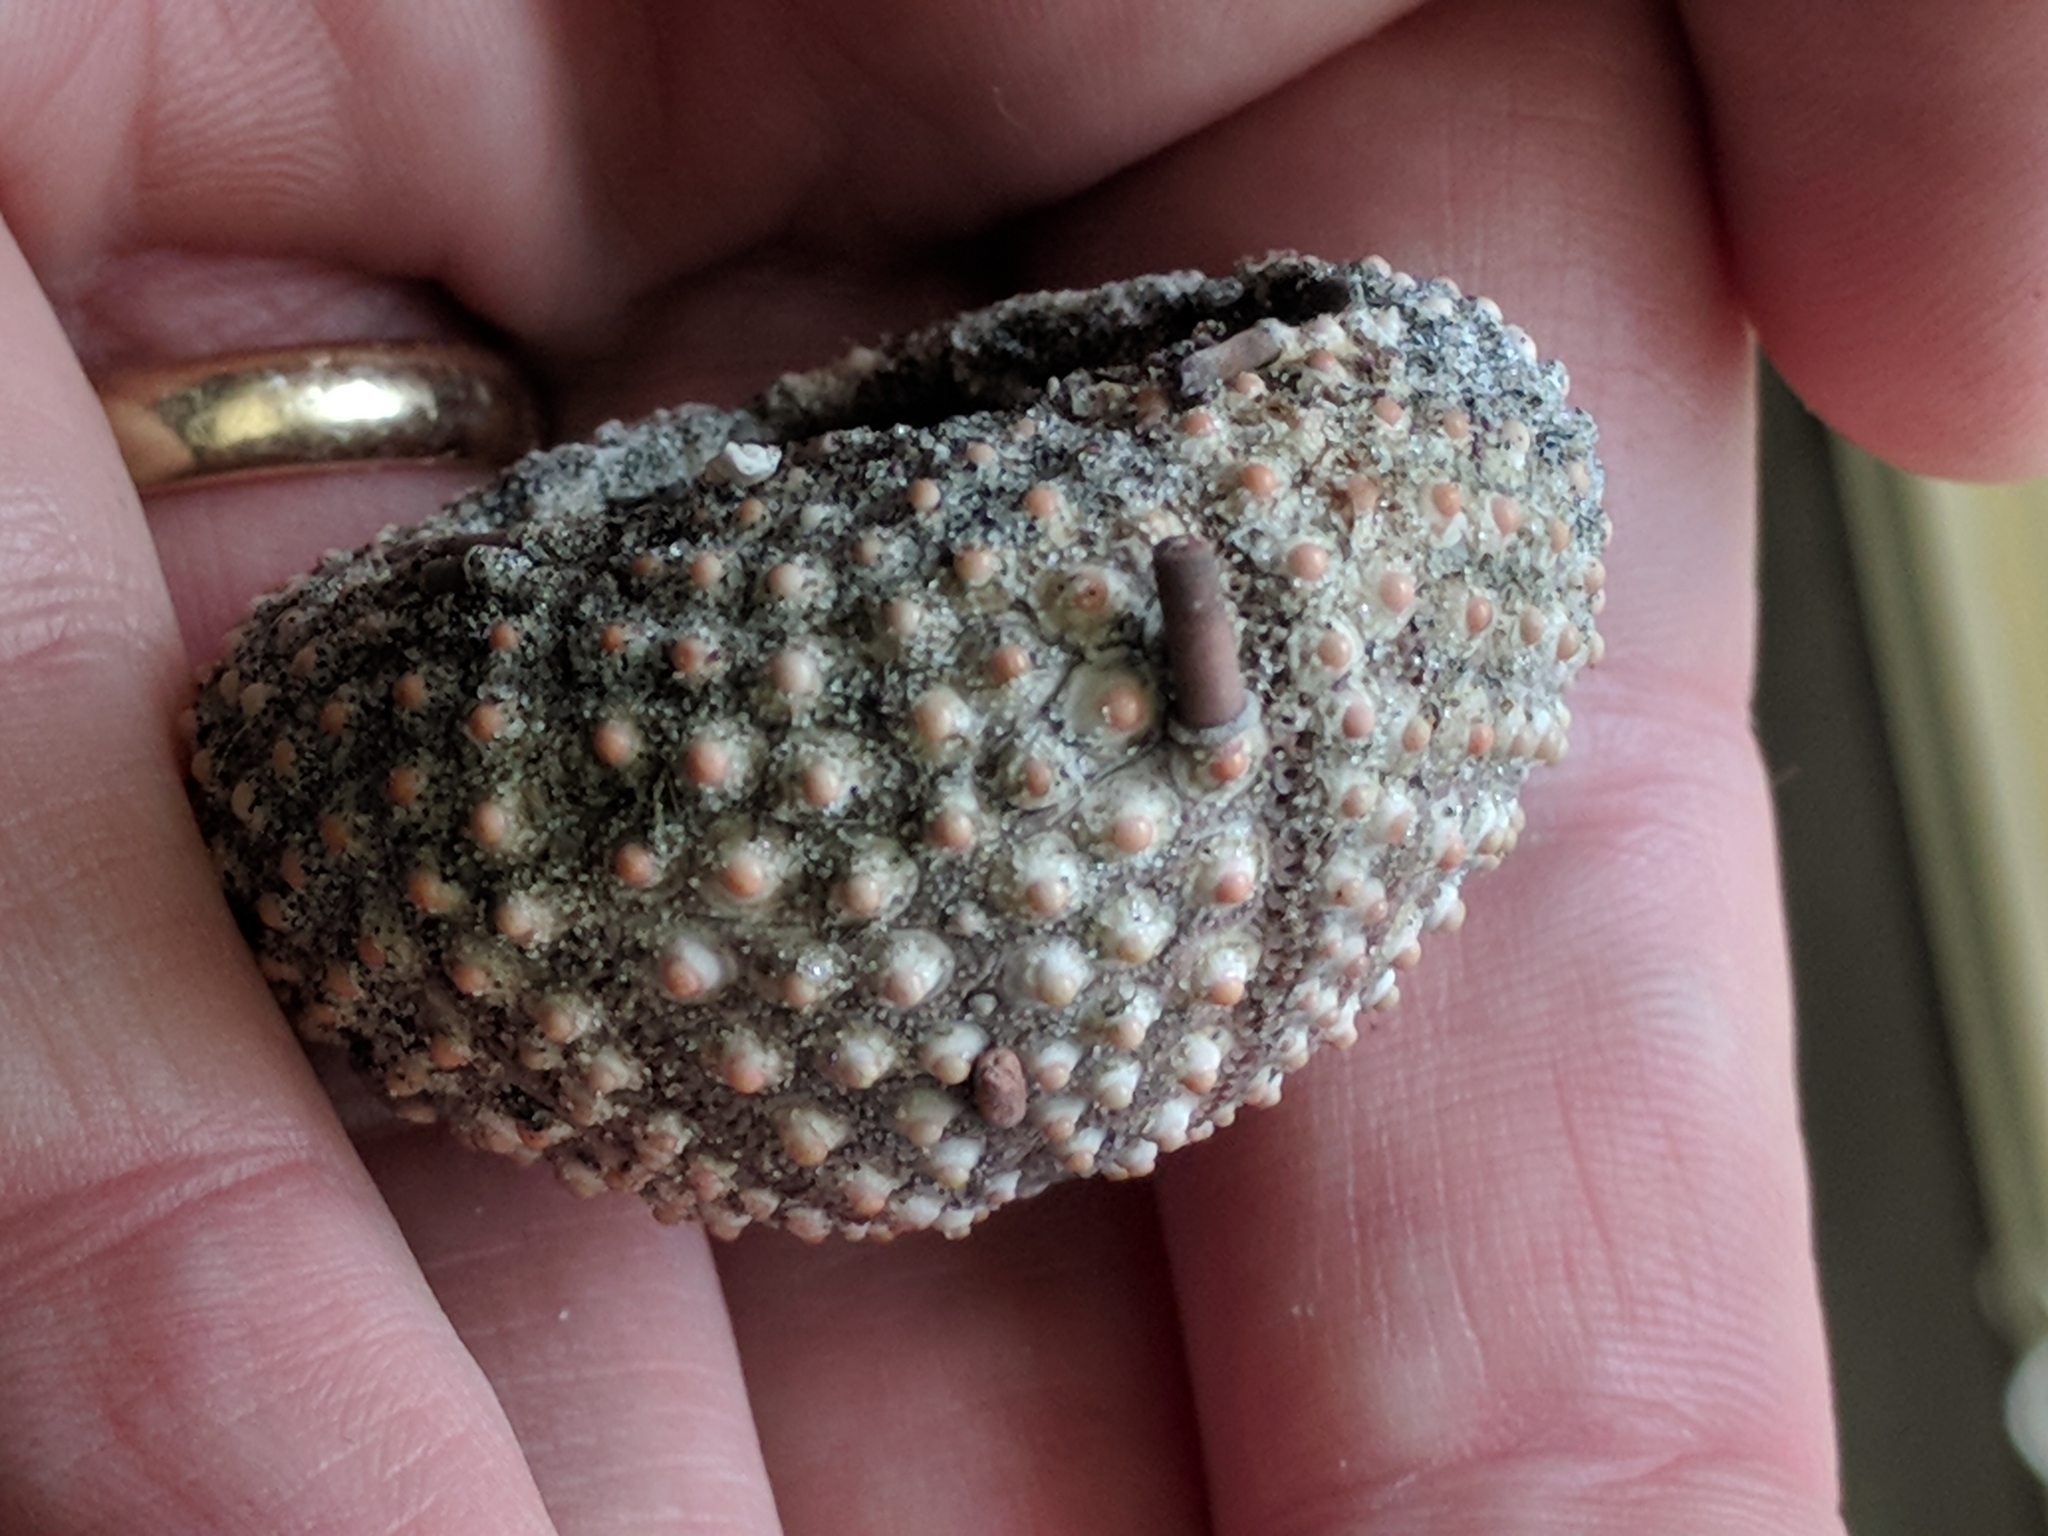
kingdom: Animalia
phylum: Echinodermata
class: Echinoidea
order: Arbacioida
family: Arbaciidae
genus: Arbacia
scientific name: Arbacia punctulata
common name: Purple-spined sea urchin
